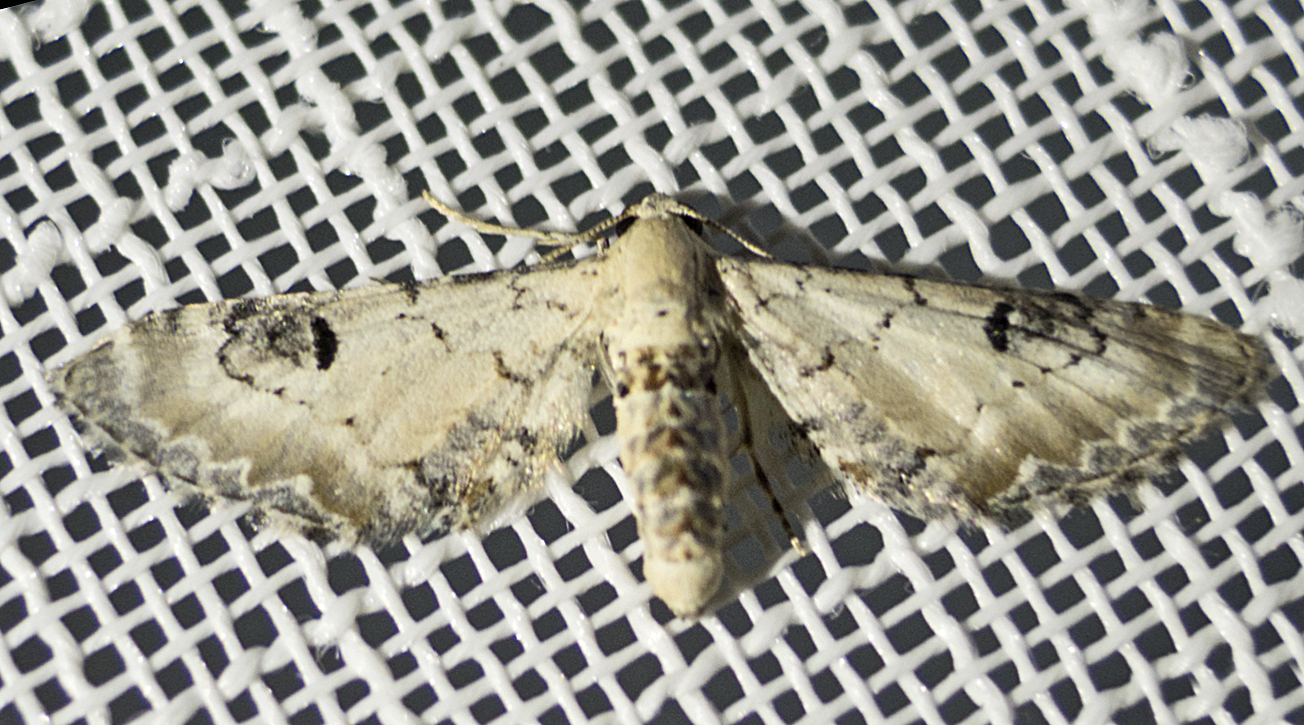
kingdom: Animalia
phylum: Arthropoda
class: Insecta
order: Lepidoptera
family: Geometridae
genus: Eupithecia
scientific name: Eupithecia centaureata
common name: Lime-speck pug
